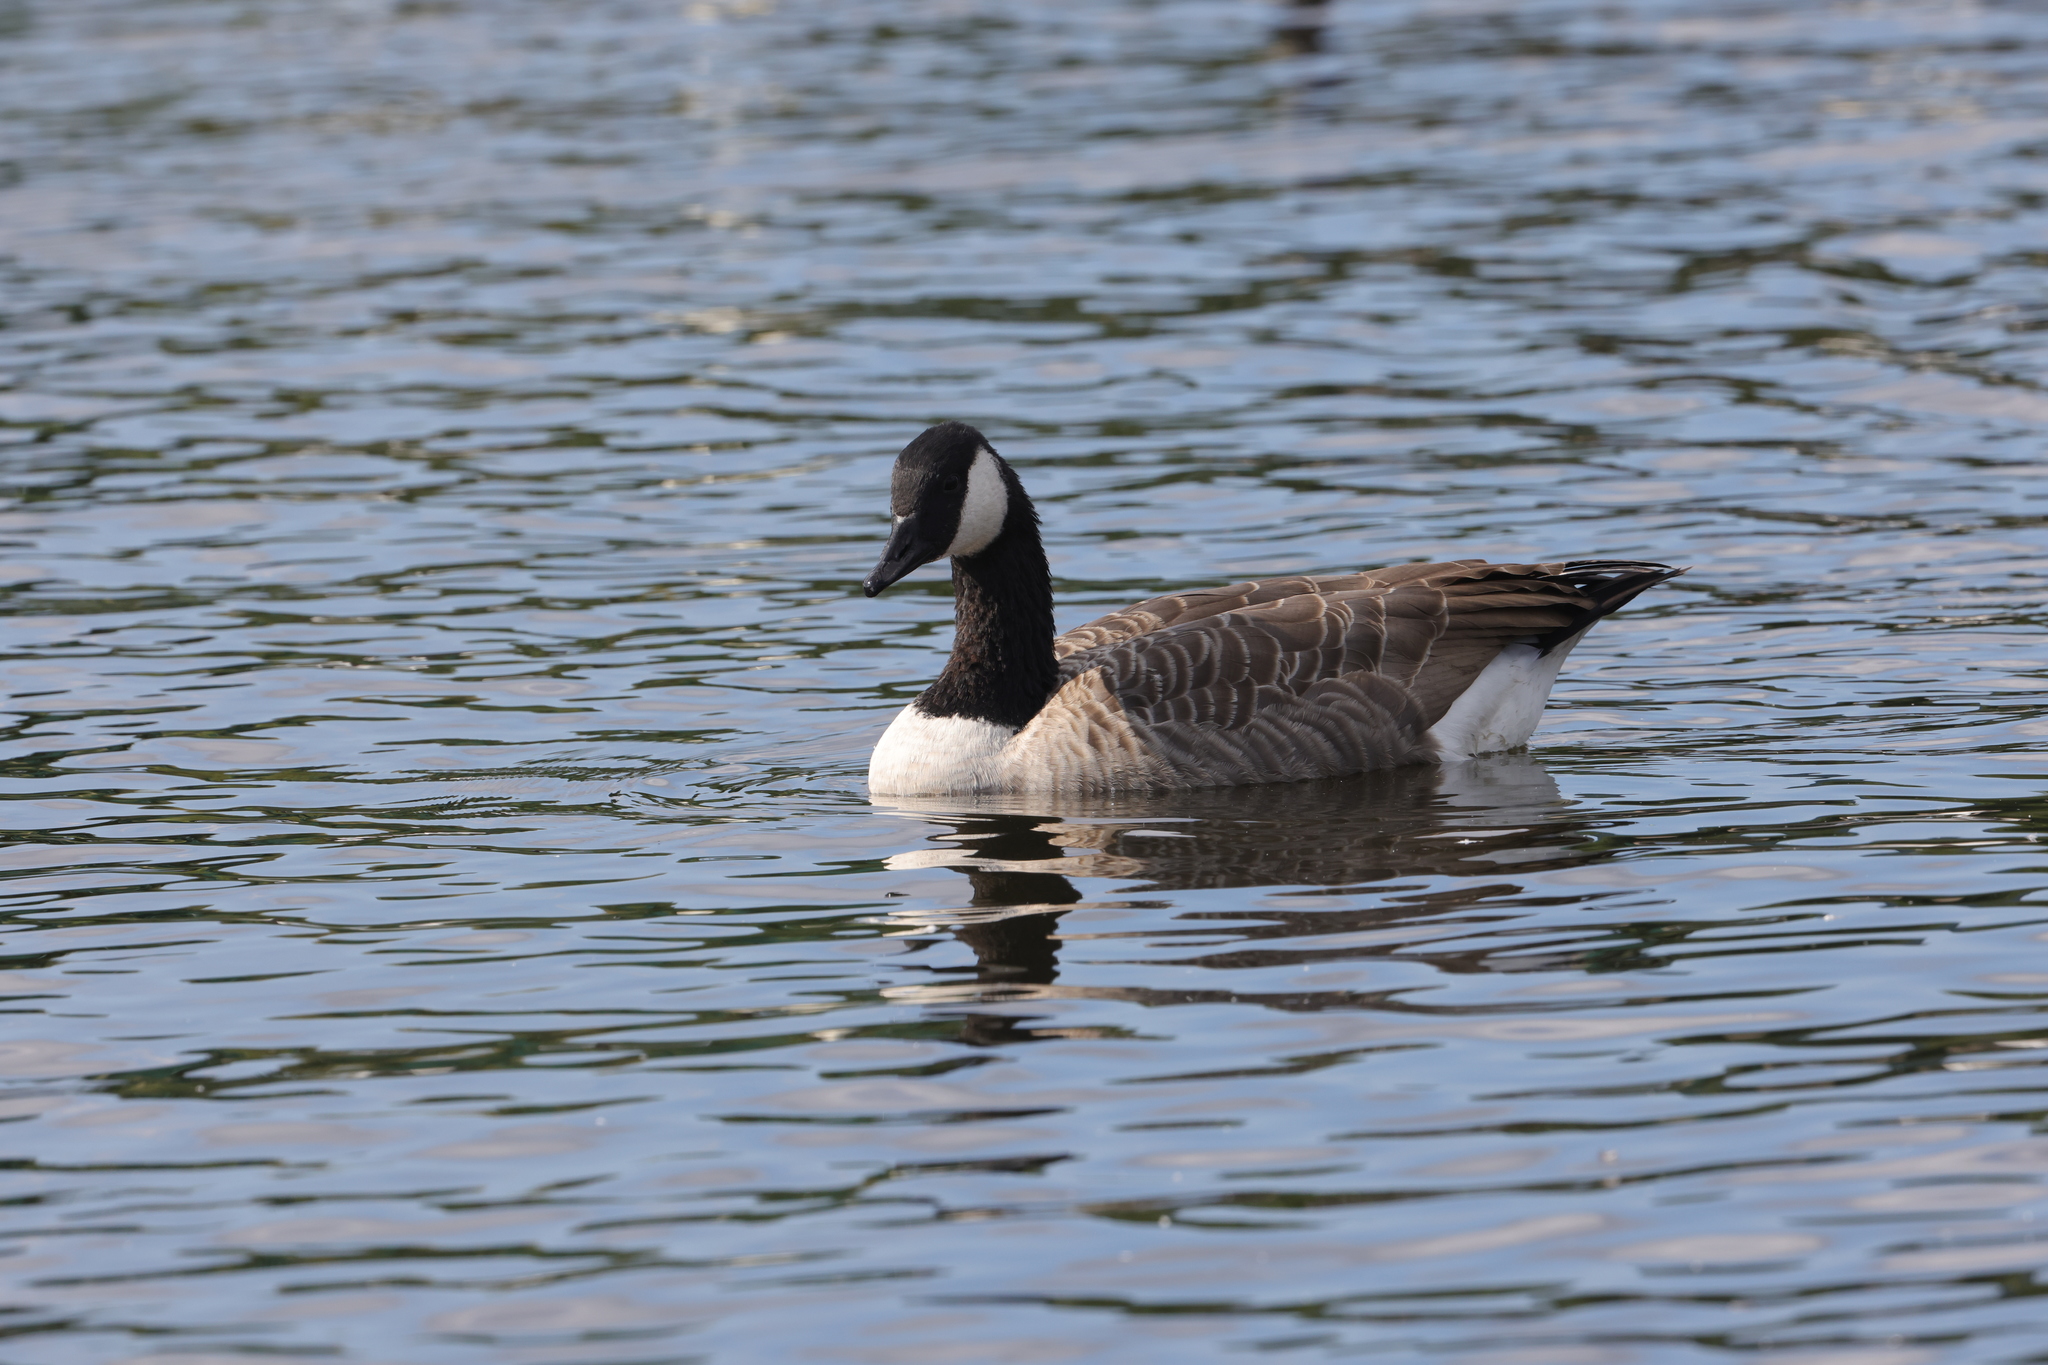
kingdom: Animalia
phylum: Chordata
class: Aves
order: Anseriformes
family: Anatidae
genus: Branta
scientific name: Branta canadensis
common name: Canada goose
